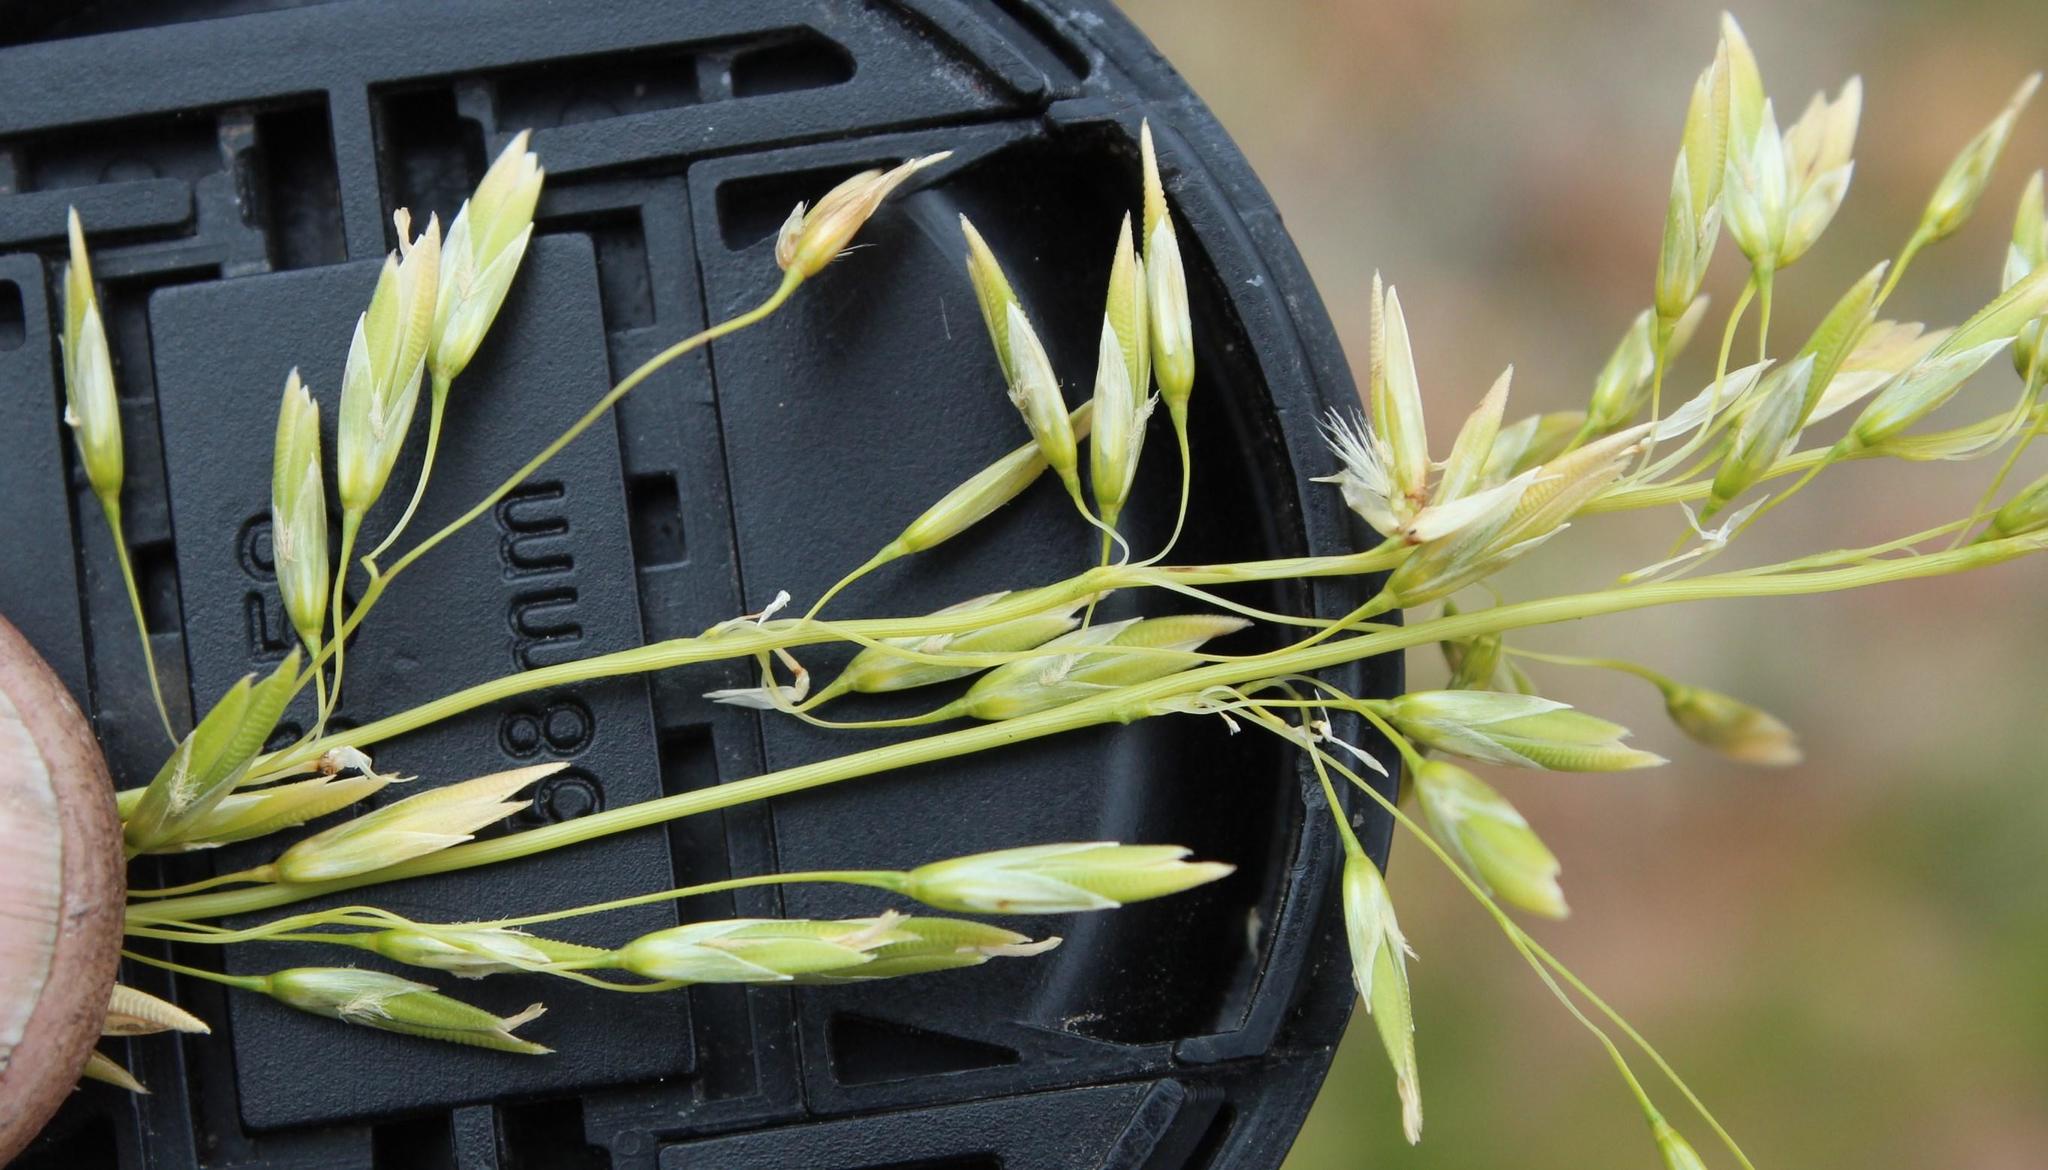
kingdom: Plantae
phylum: Tracheophyta
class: Liliopsida
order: Poales
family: Poaceae
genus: Ehrharta
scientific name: Ehrharta capensis
